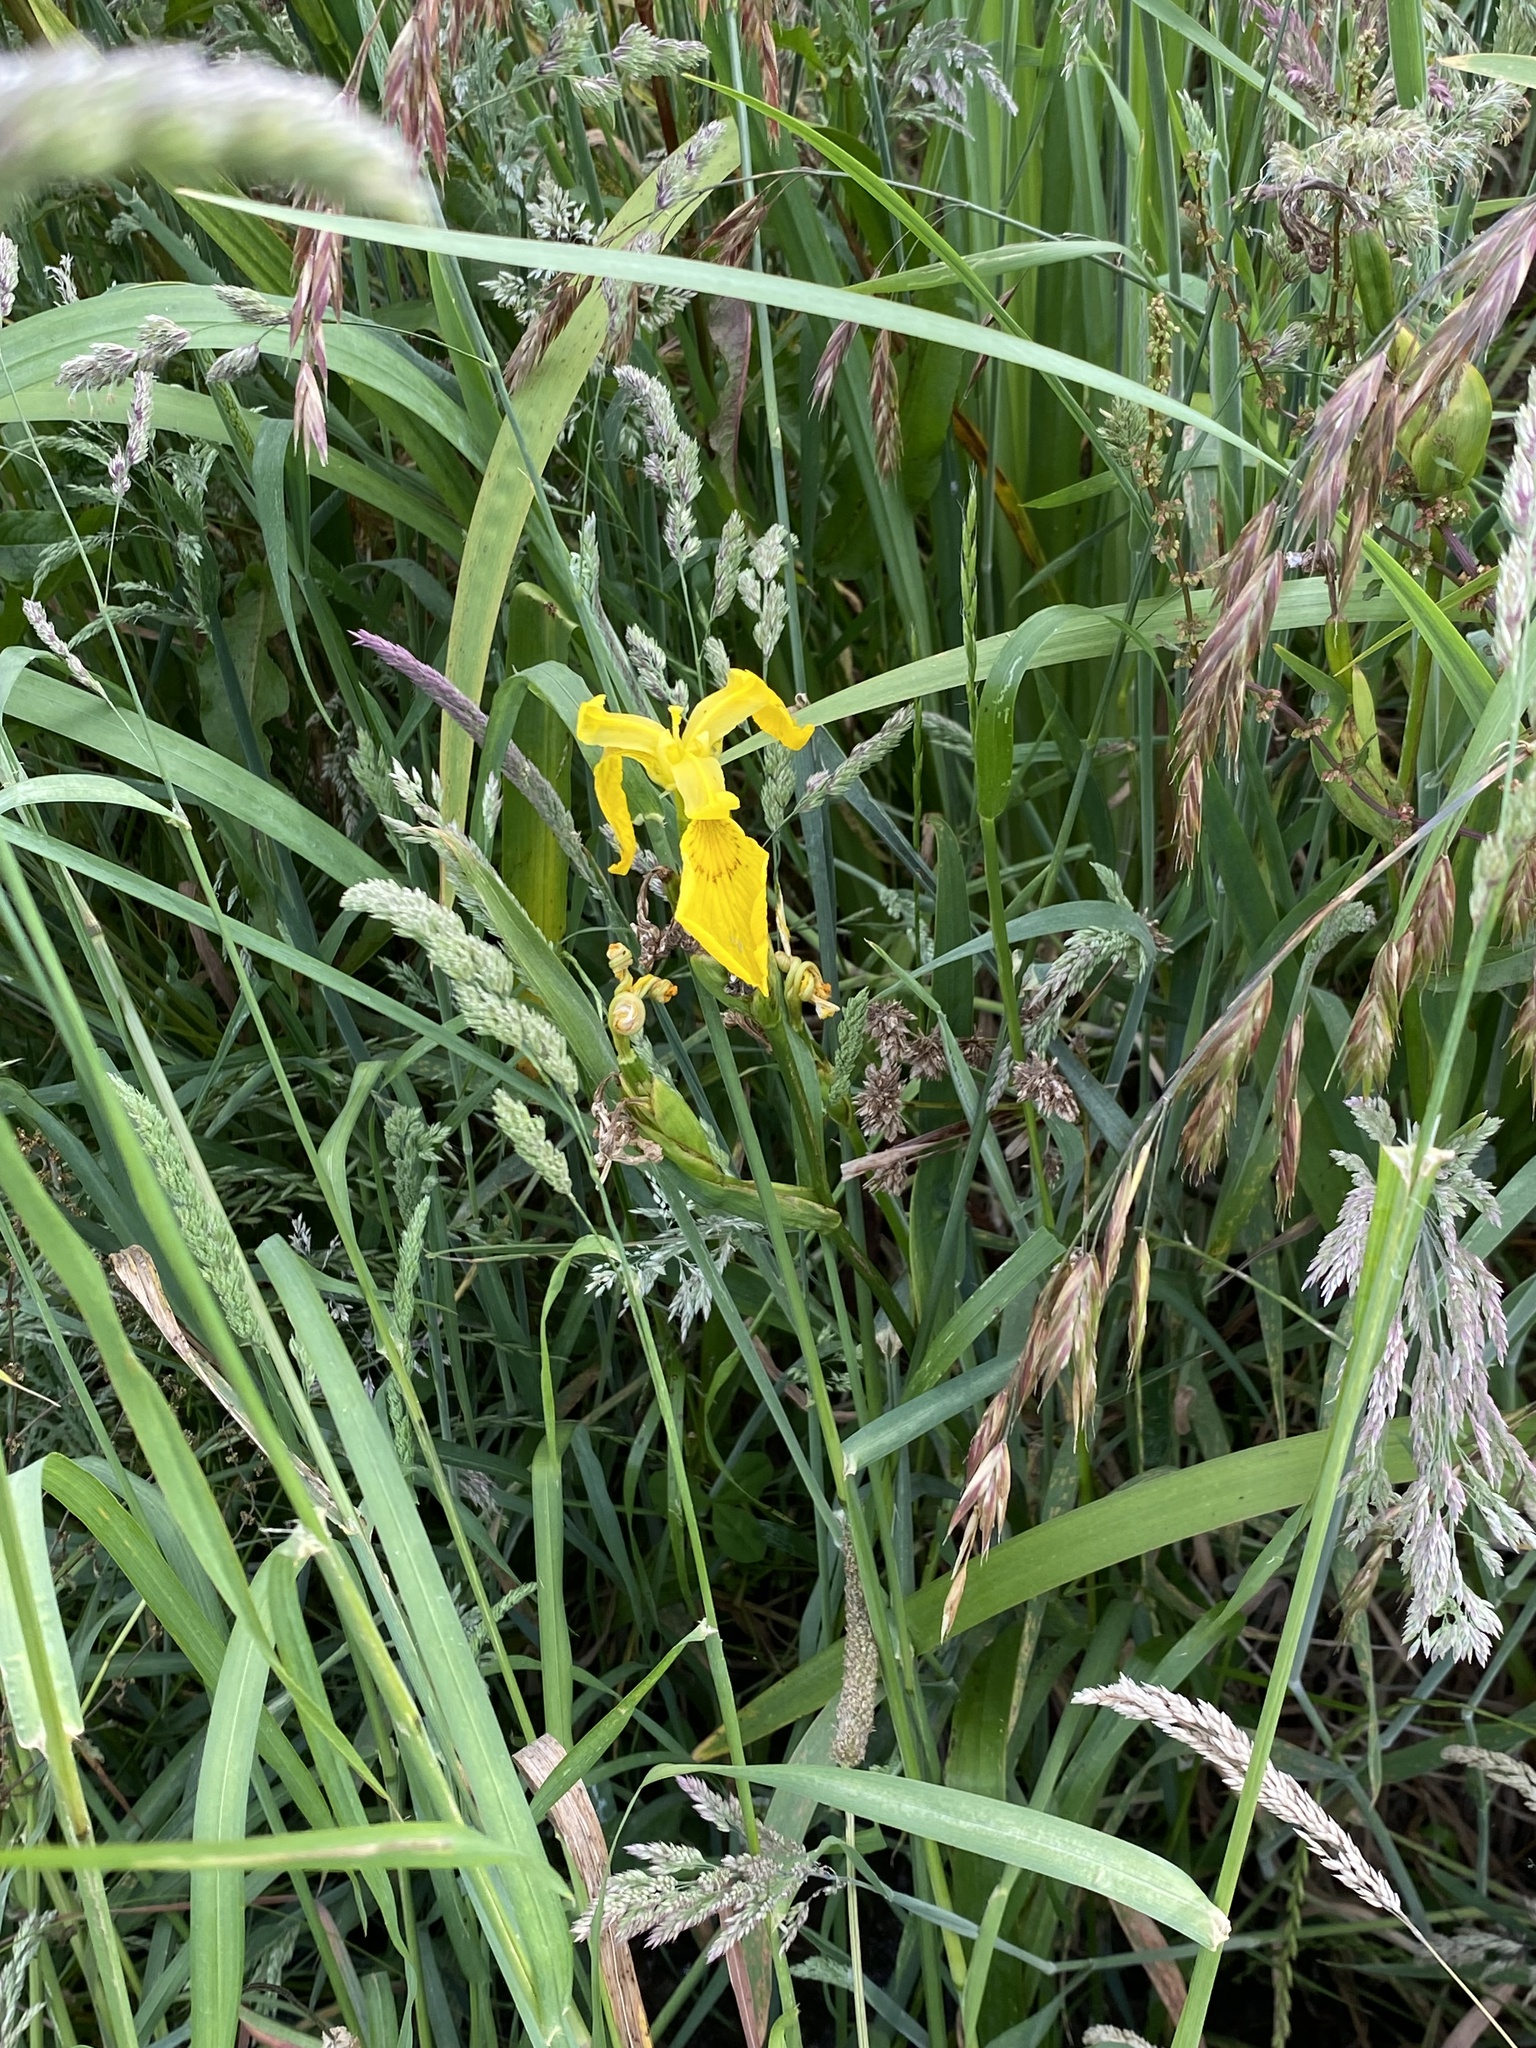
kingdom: Plantae
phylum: Tracheophyta
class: Liliopsida
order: Asparagales
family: Iridaceae
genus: Iris
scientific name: Iris pseudacorus
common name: Yellow flag
